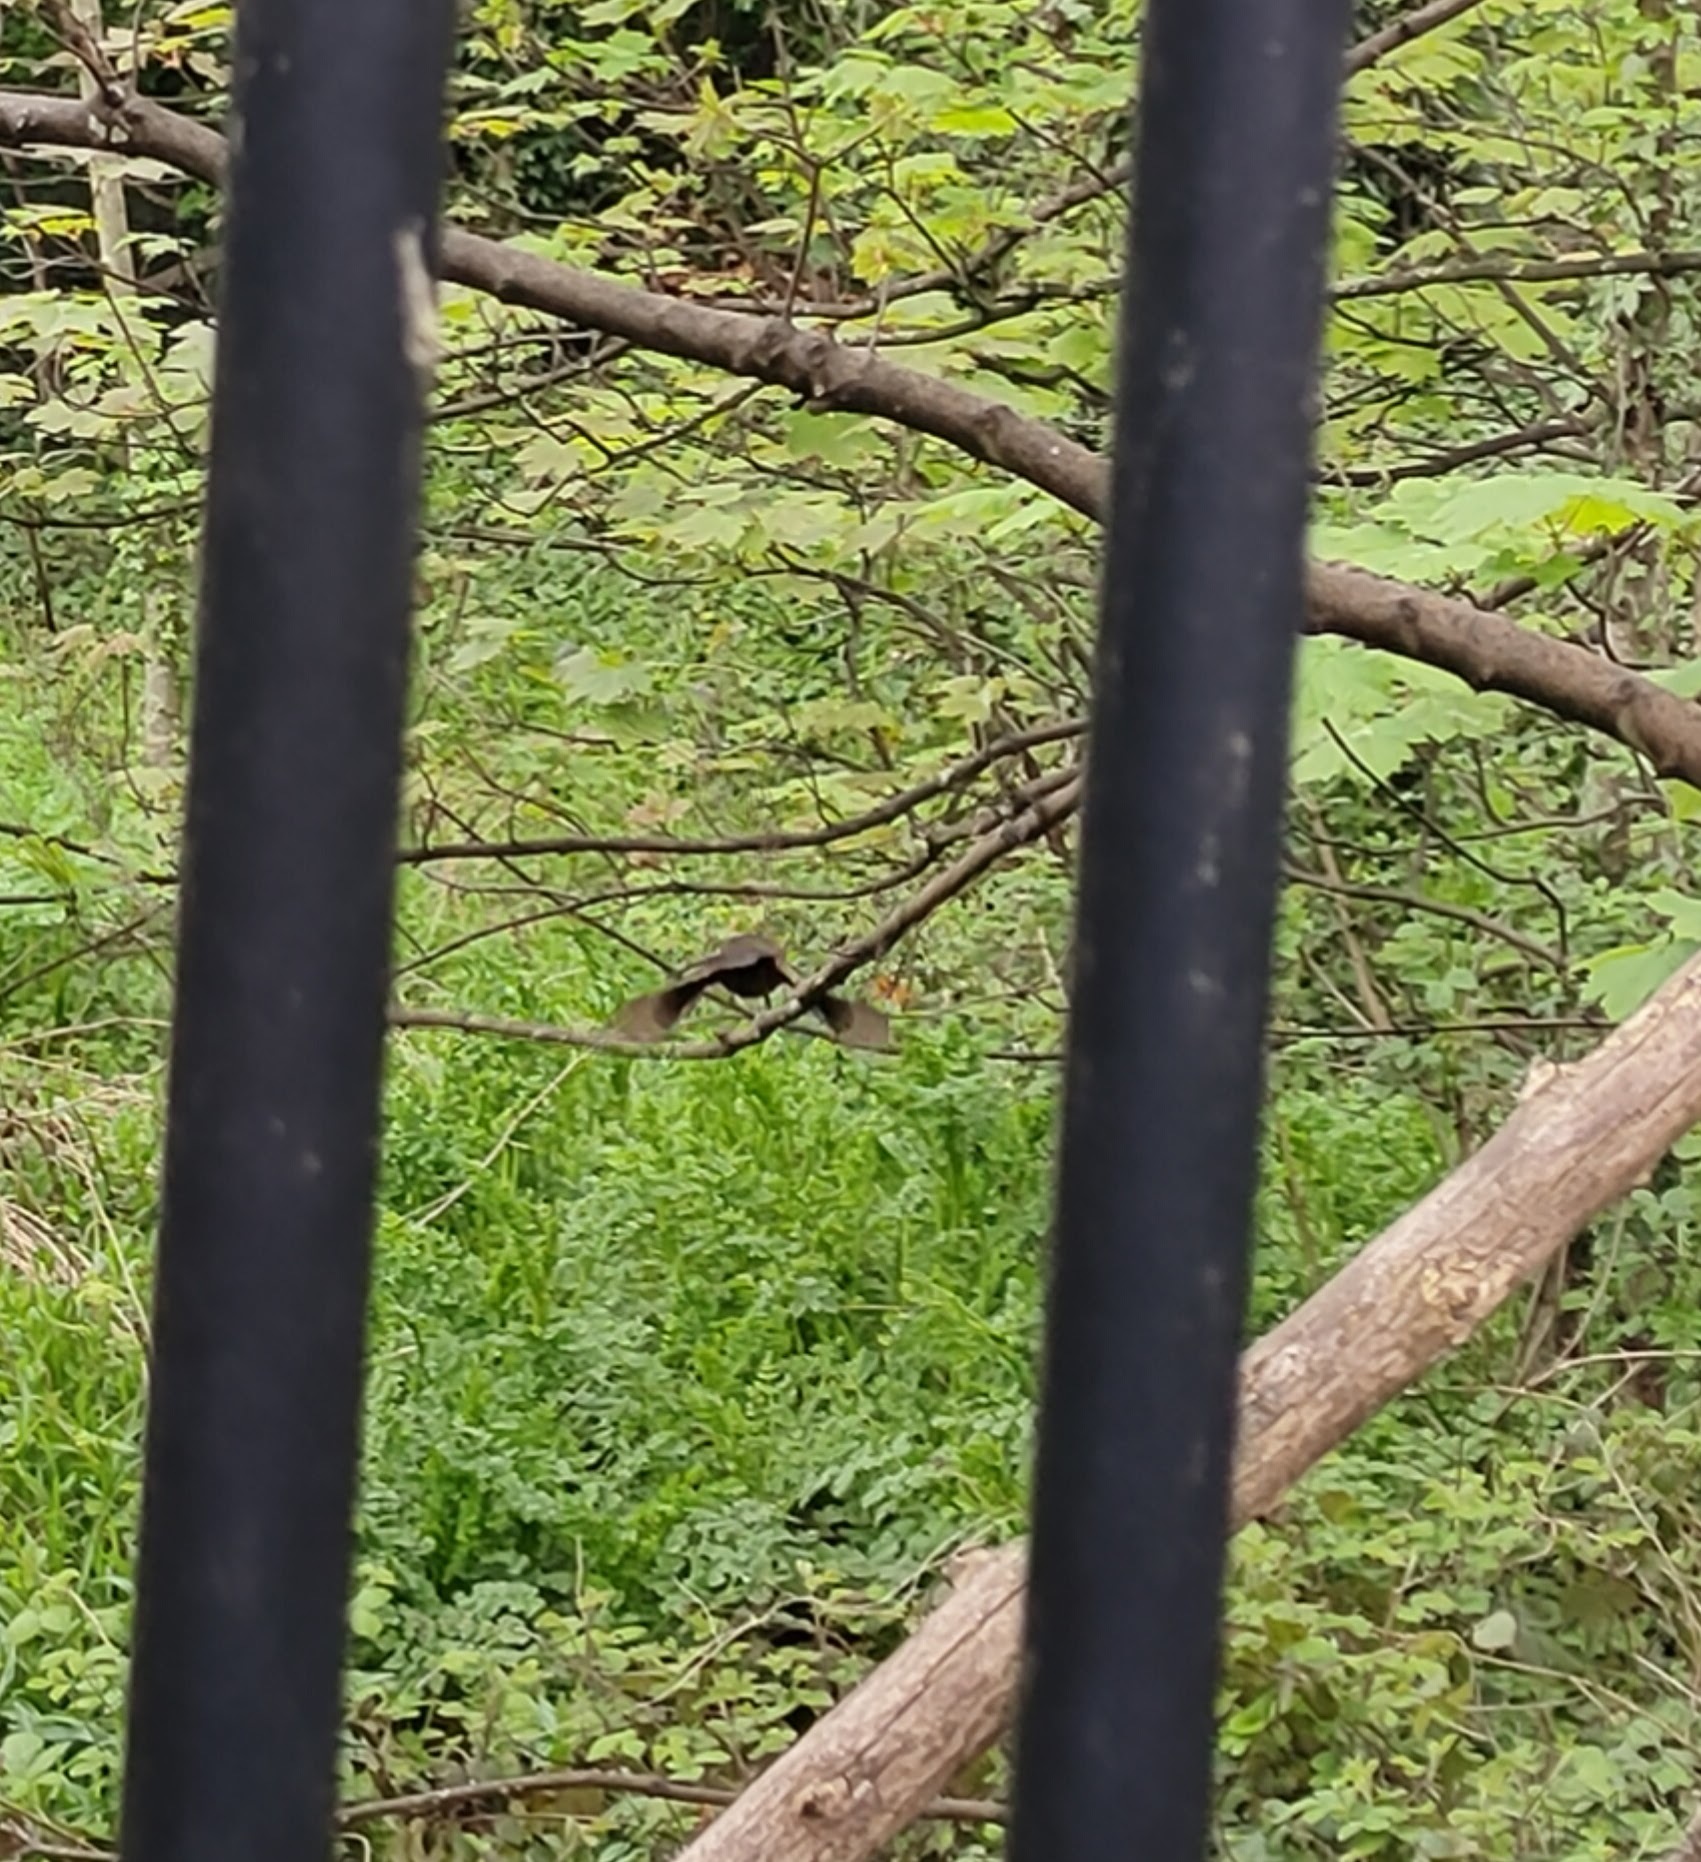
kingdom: Animalia
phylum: Chordata
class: Aves
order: Passeriformes
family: Turdidae
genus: Turdus
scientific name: Turdus merula
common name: Common blackbird
